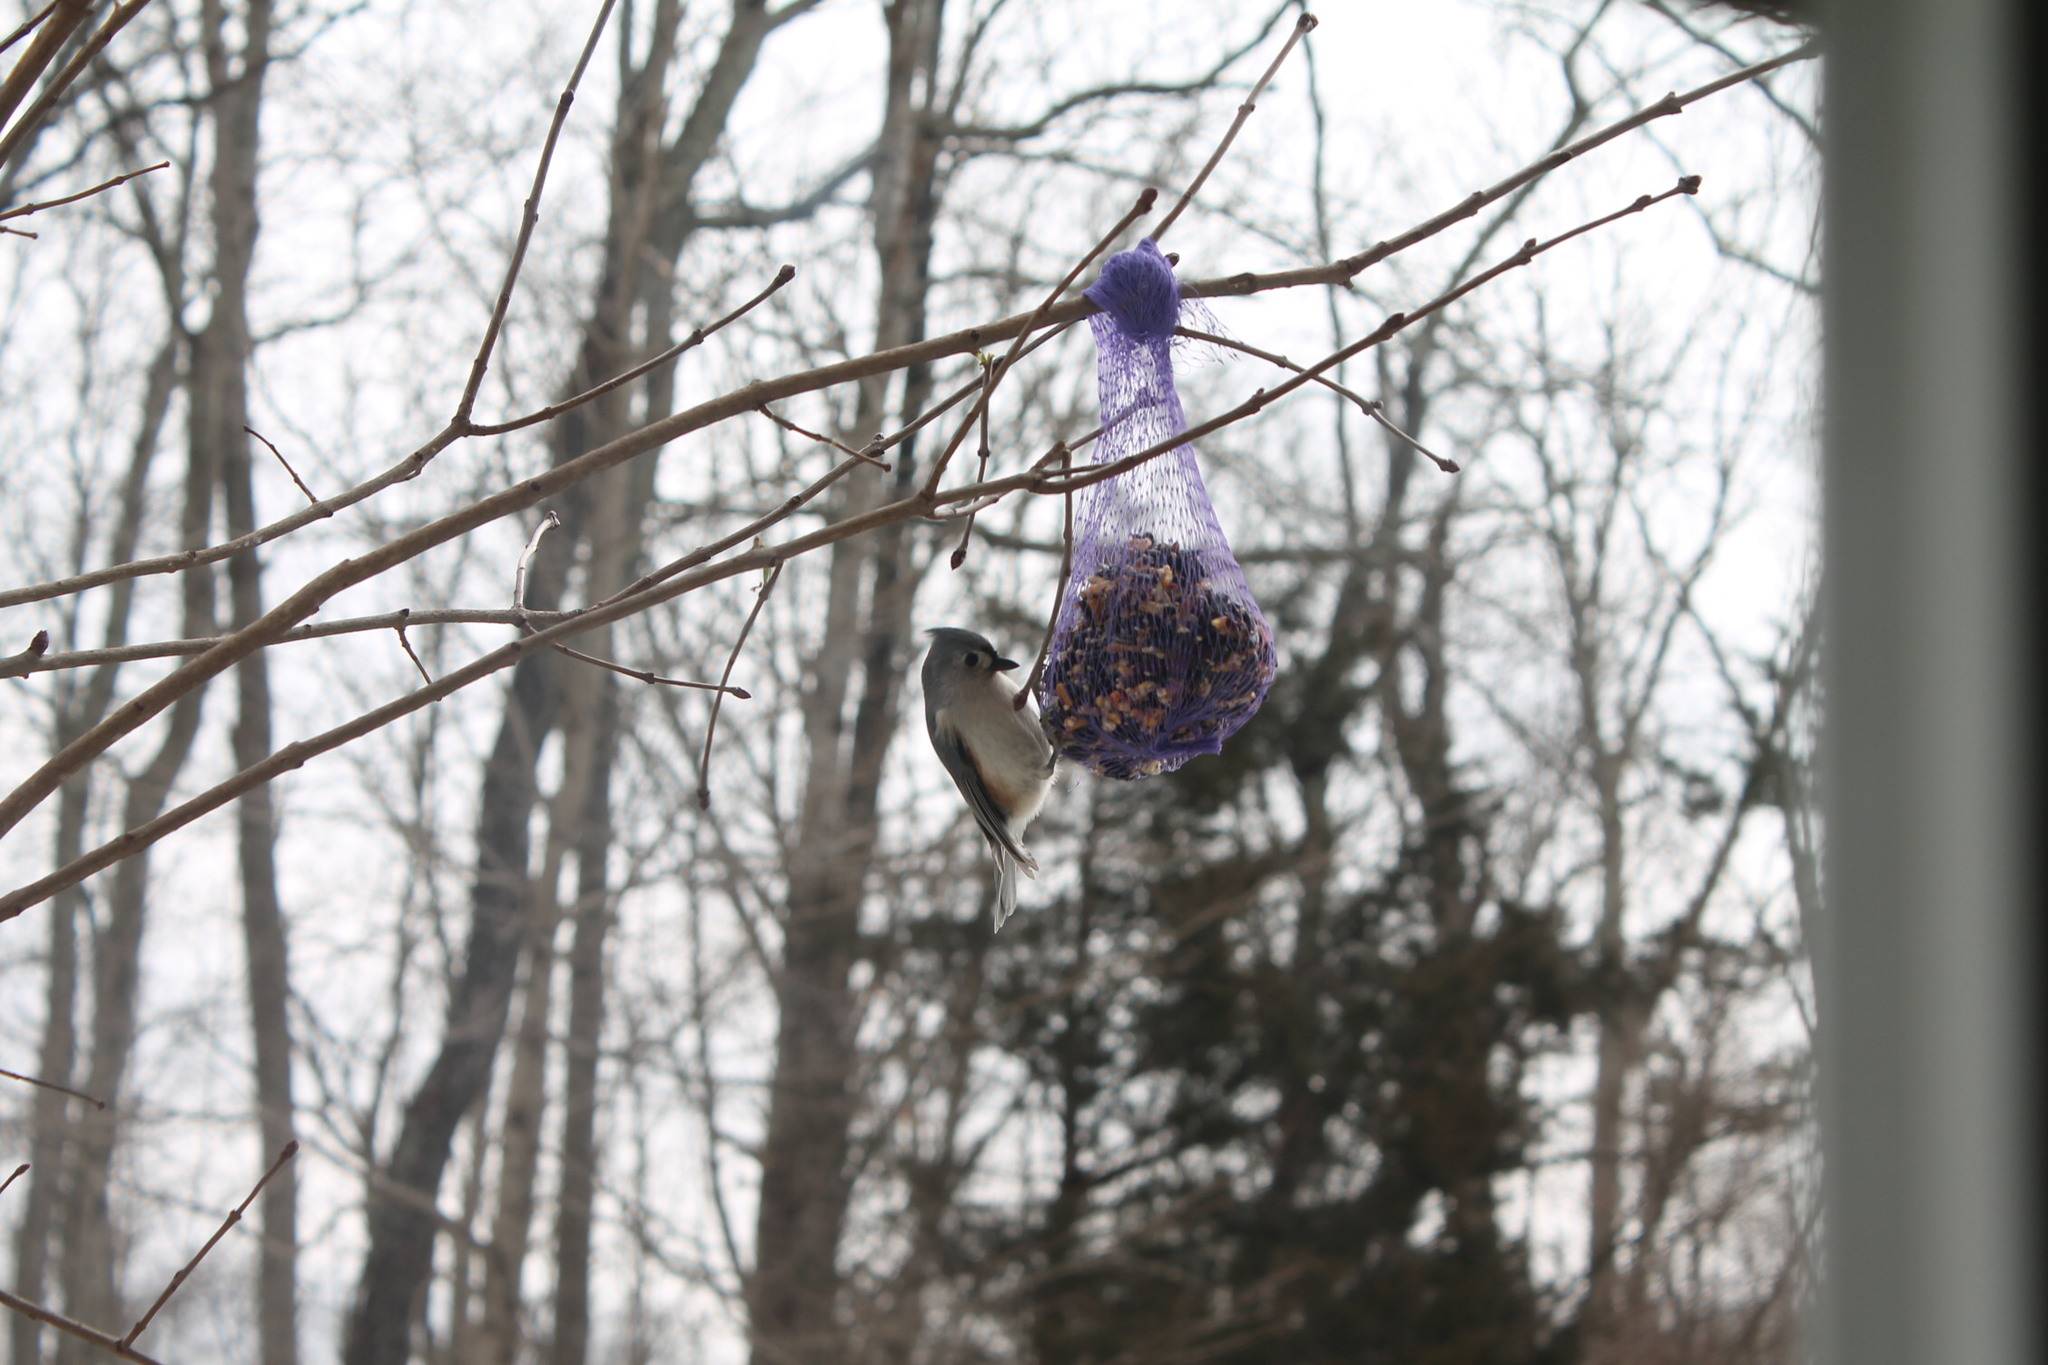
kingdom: Animalia
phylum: Chordata
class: Aves
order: Passeriformes
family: Paridae
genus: Baeolophus
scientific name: Baeolophus bicolor
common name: Tufted titmouse
